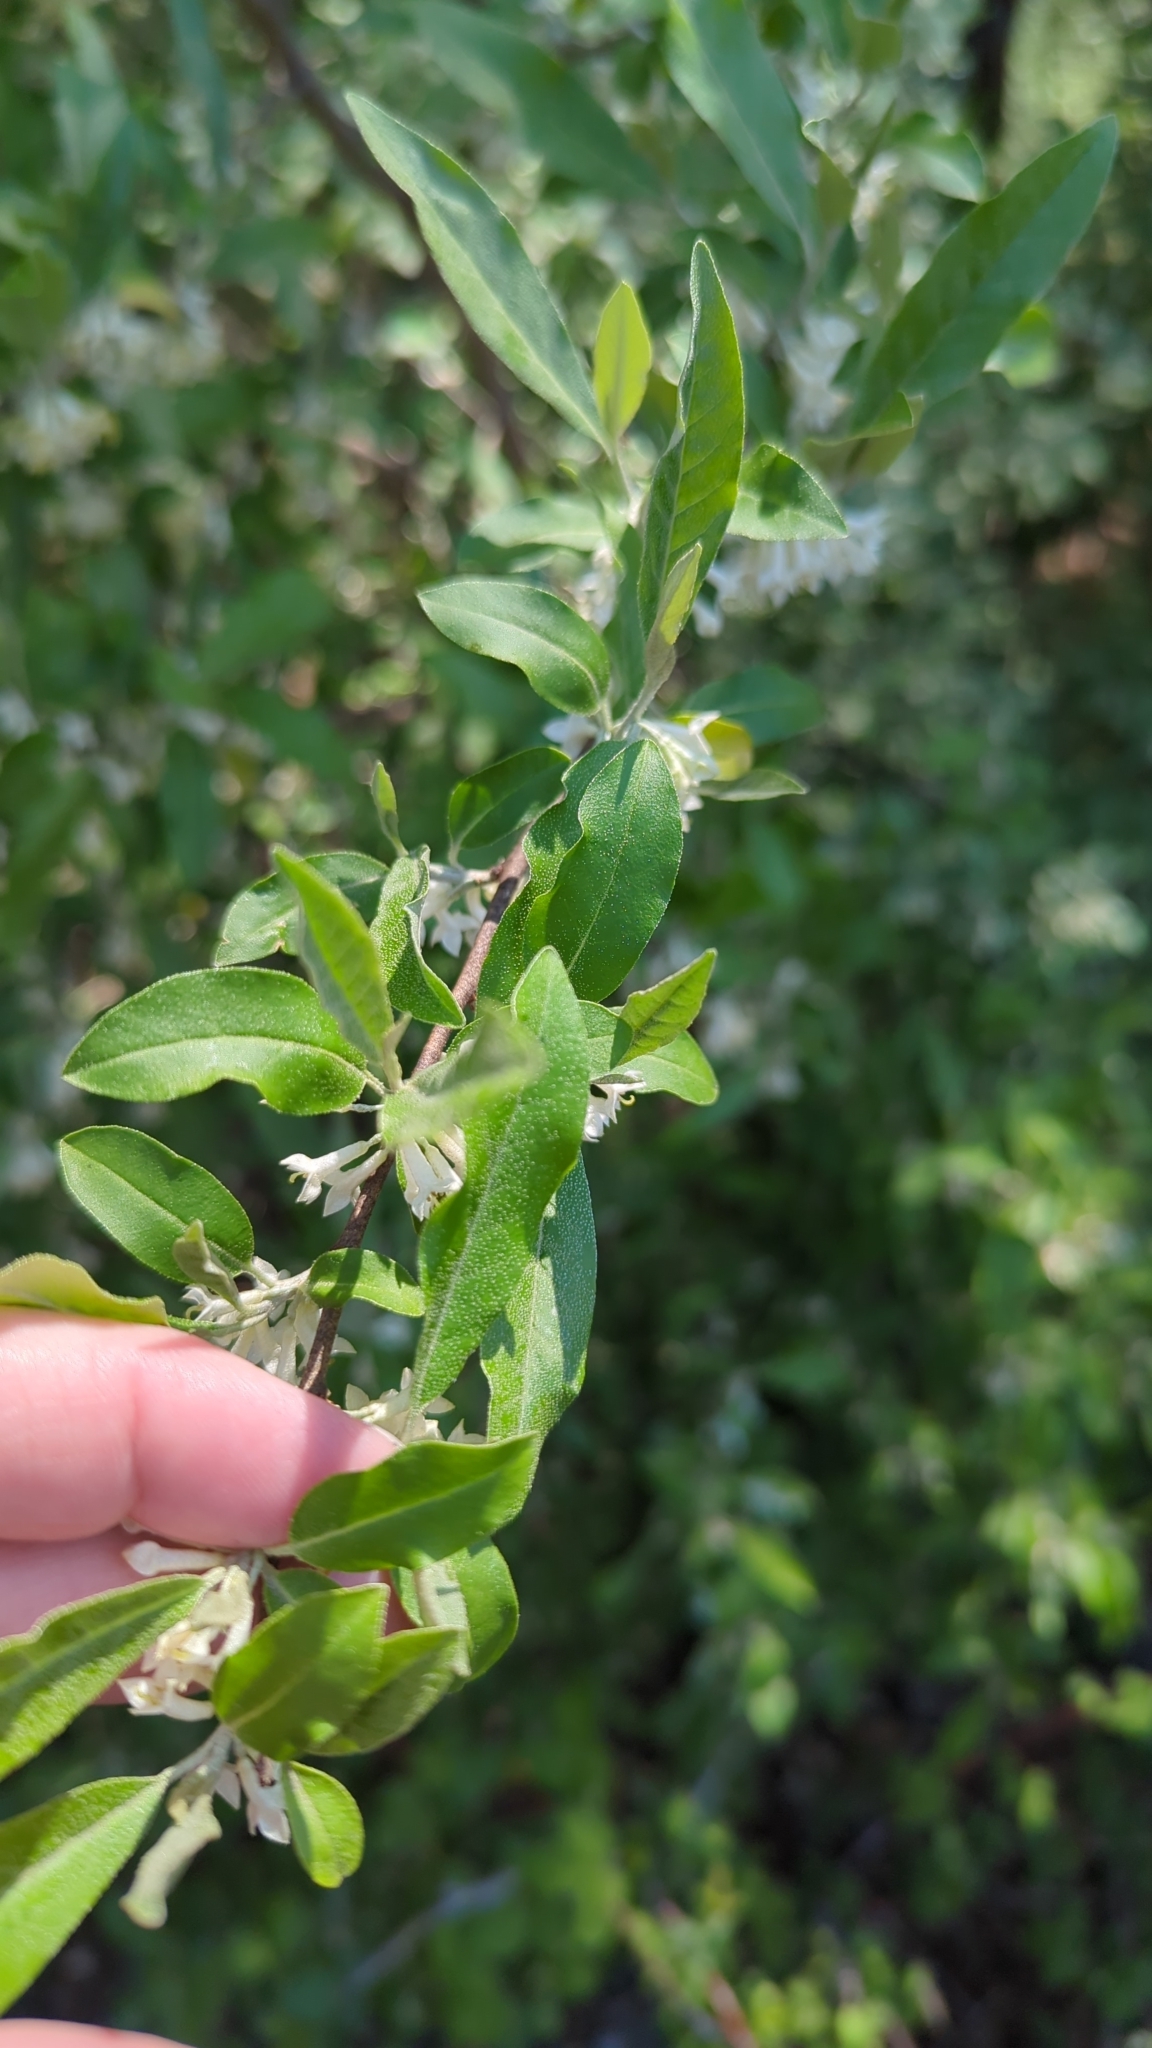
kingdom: Plantae
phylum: Tracheophyta
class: Magnoliopsida
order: Rosales
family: Elaeagnaceae
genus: Elaeagnus
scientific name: Elaeagnus umbellata
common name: Autumn olive
